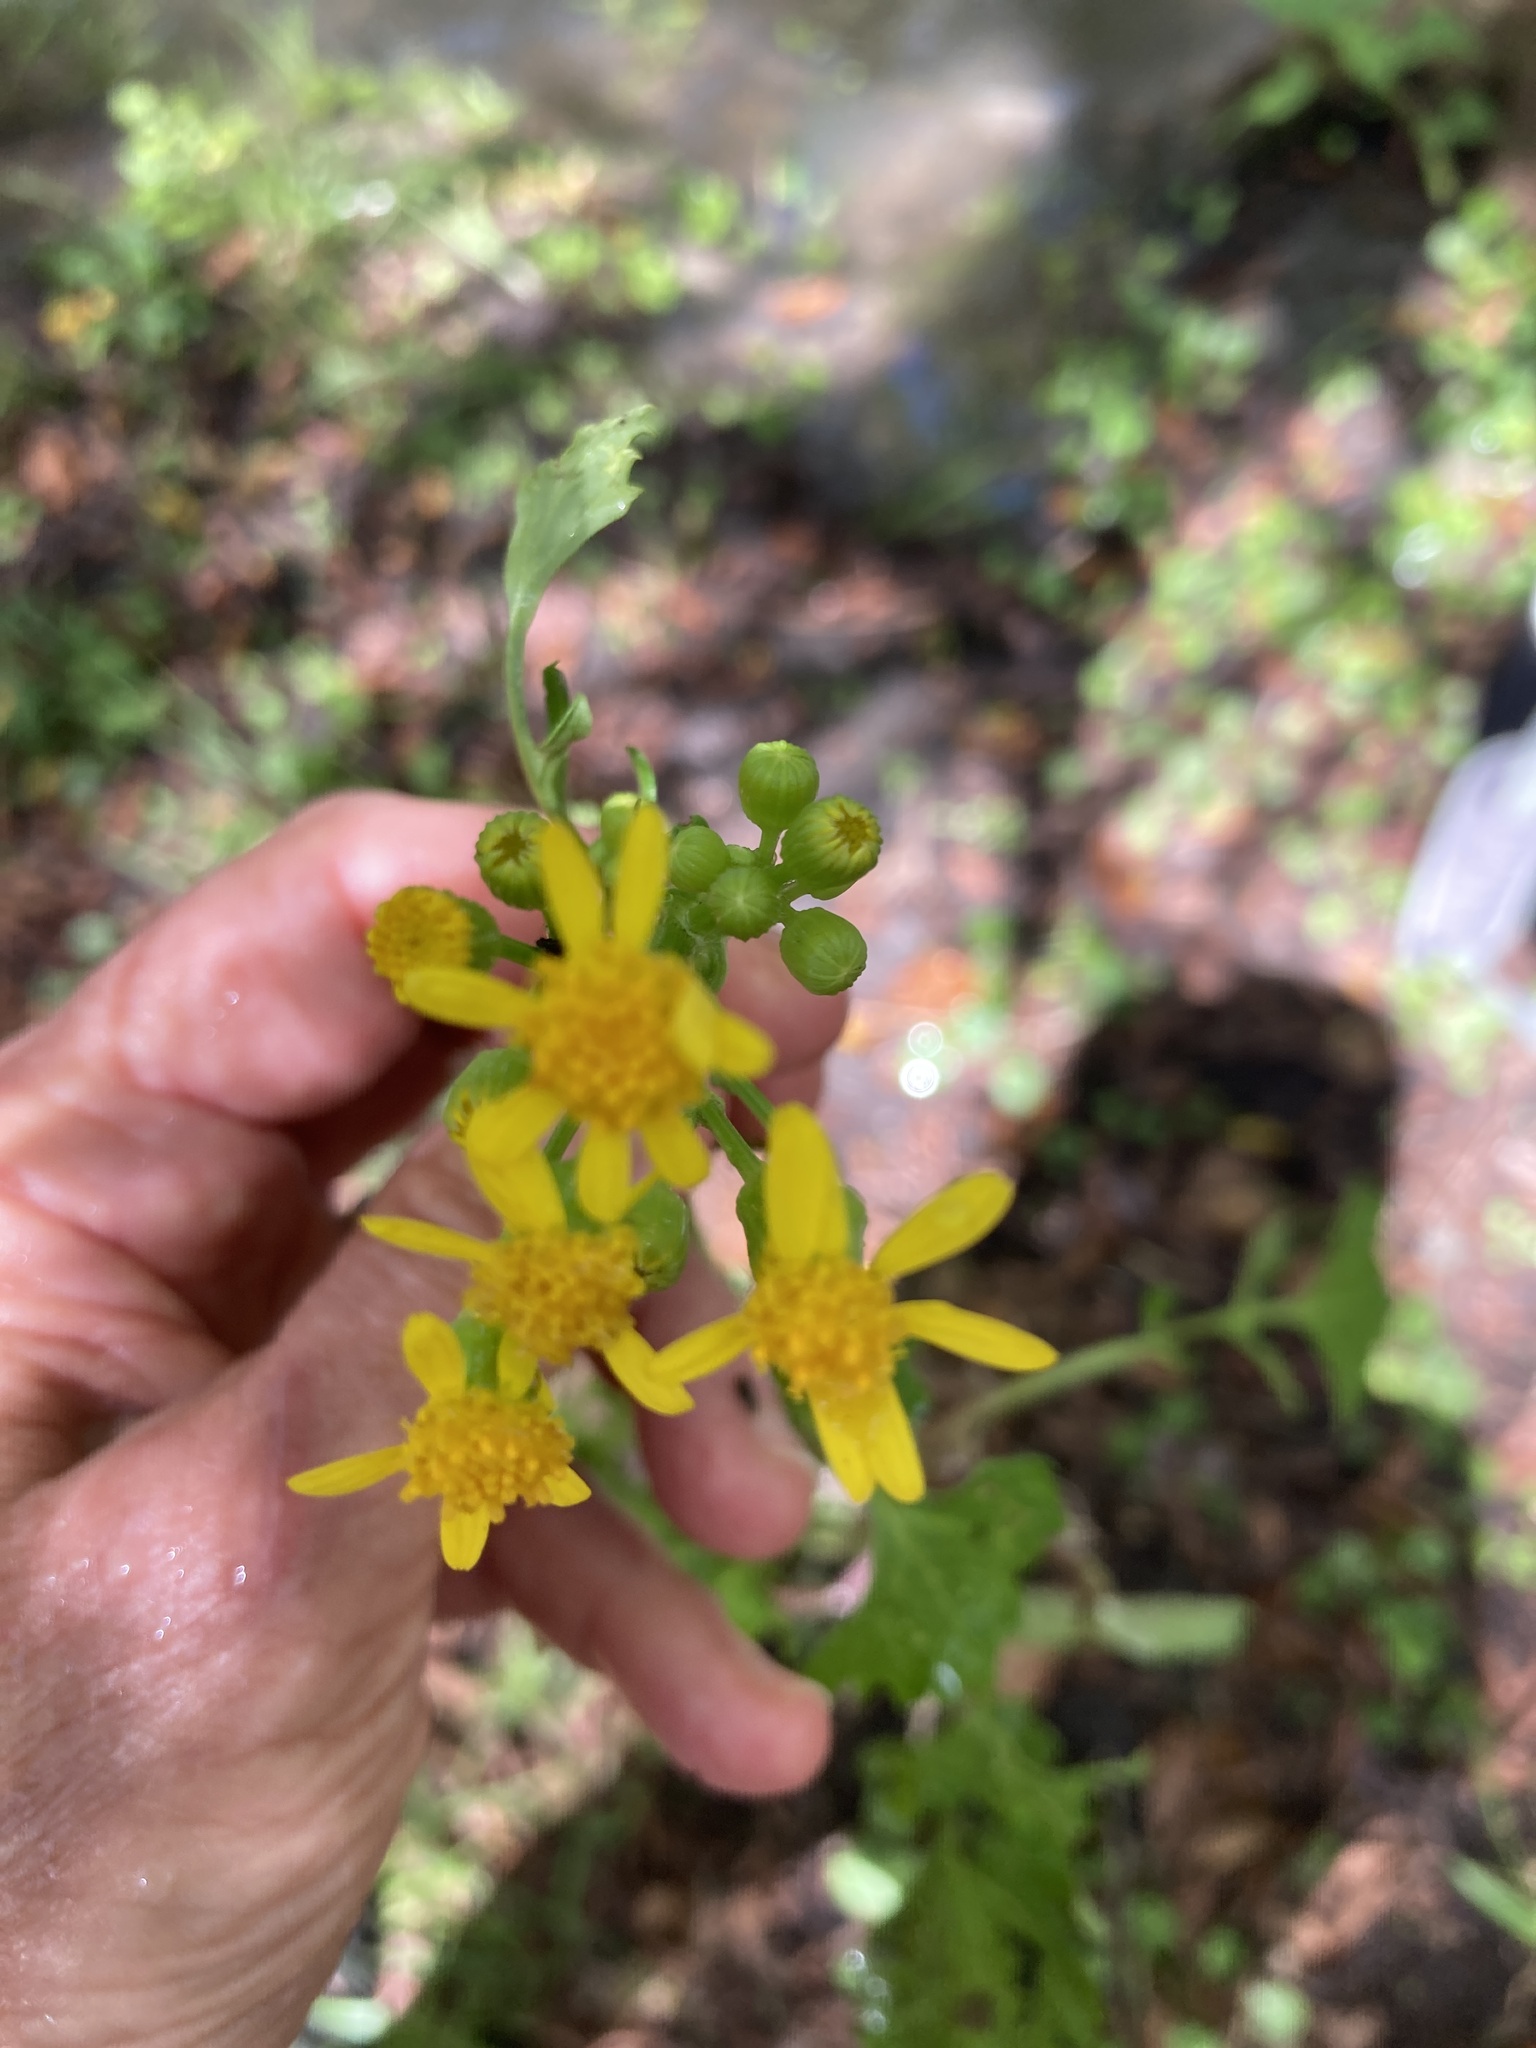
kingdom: Plantae
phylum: Tracheophyta
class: Magnoliopsida
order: Asterales
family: Asteraceae
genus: Packera
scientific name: Packera glabella
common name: Butterweed
